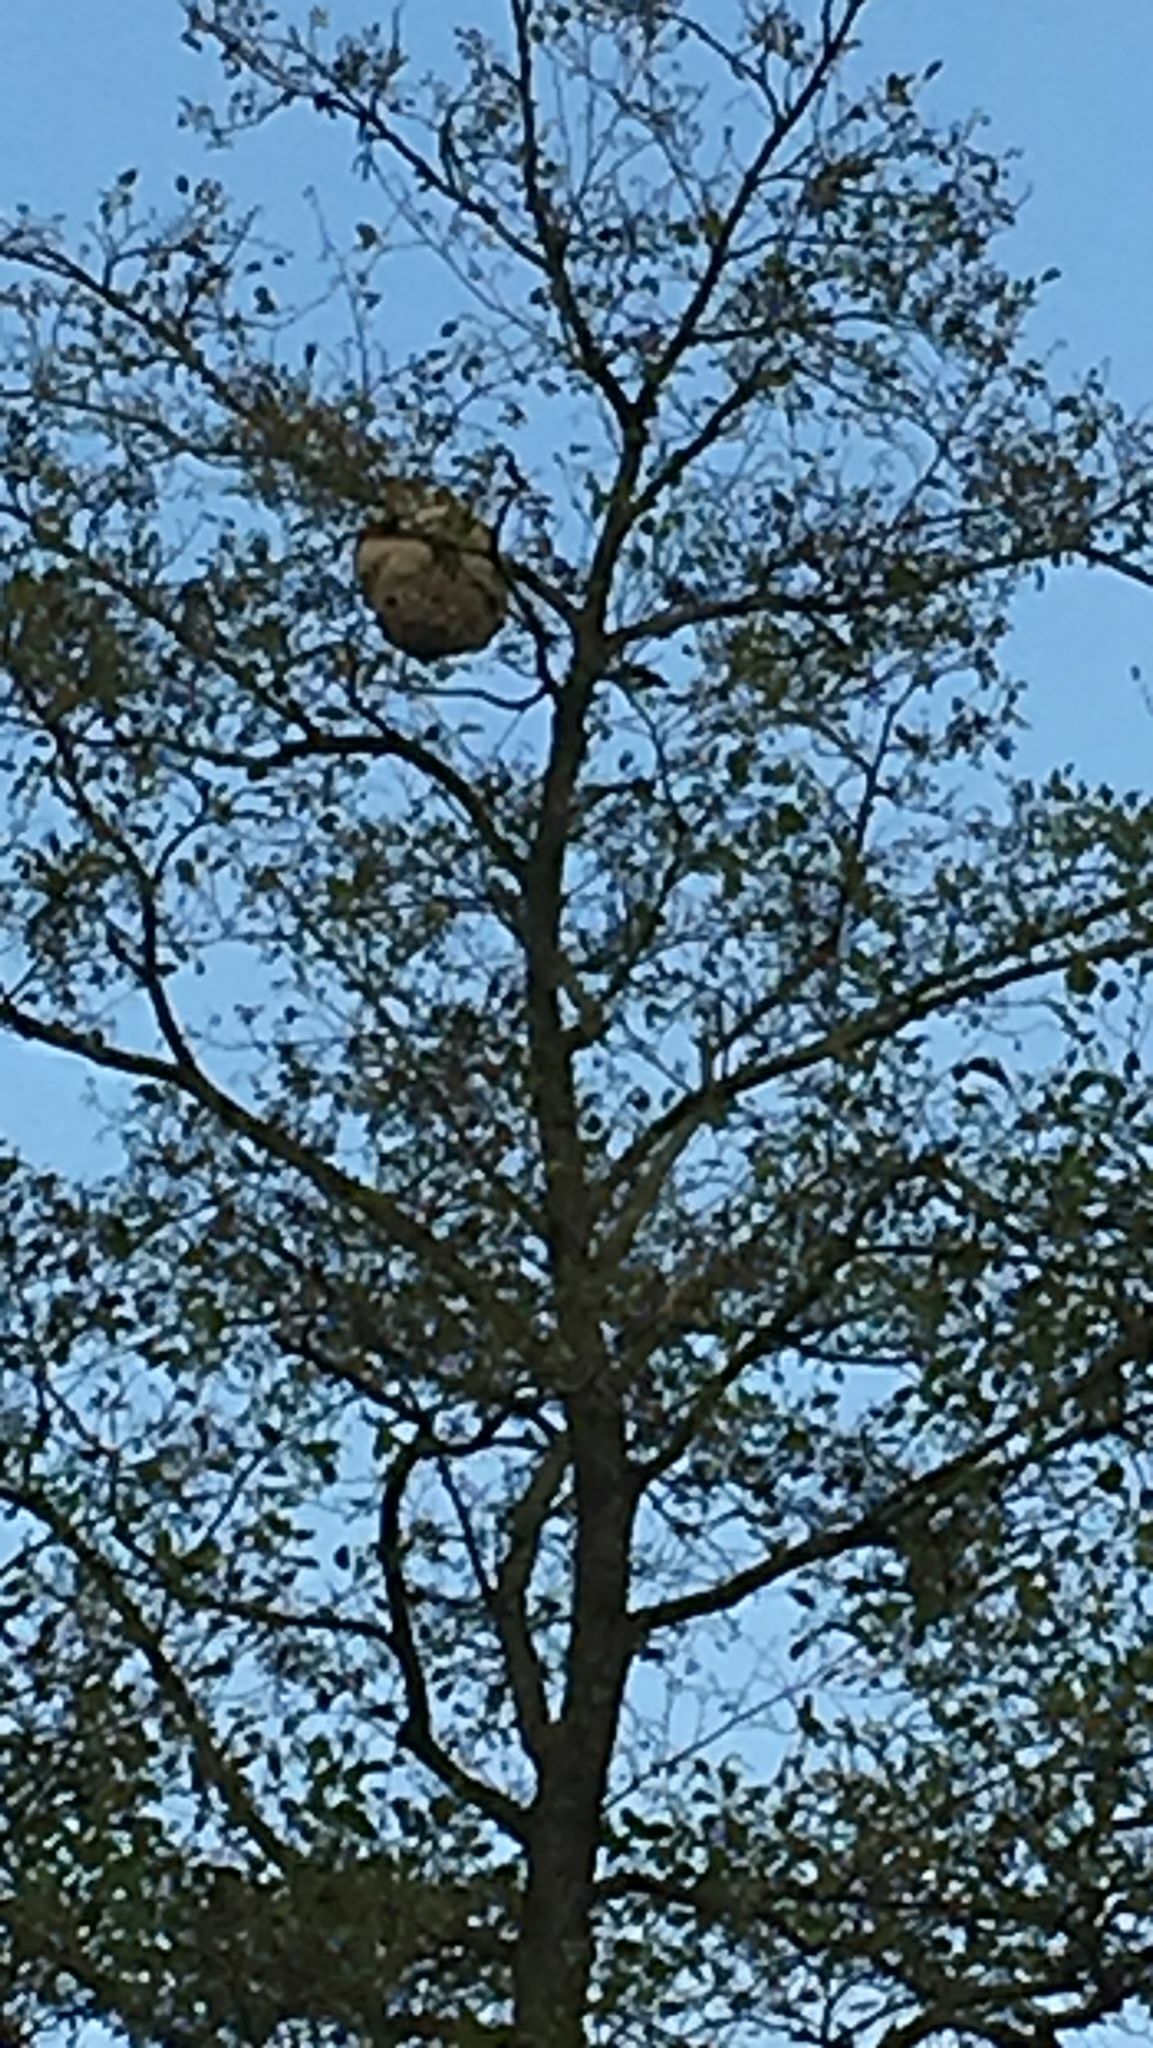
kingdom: Animalia
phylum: Arthropoda
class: Insecta
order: Hymenoptera
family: Vespidae
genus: Vespa
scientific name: Vespa velutina
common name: Asian hornet
